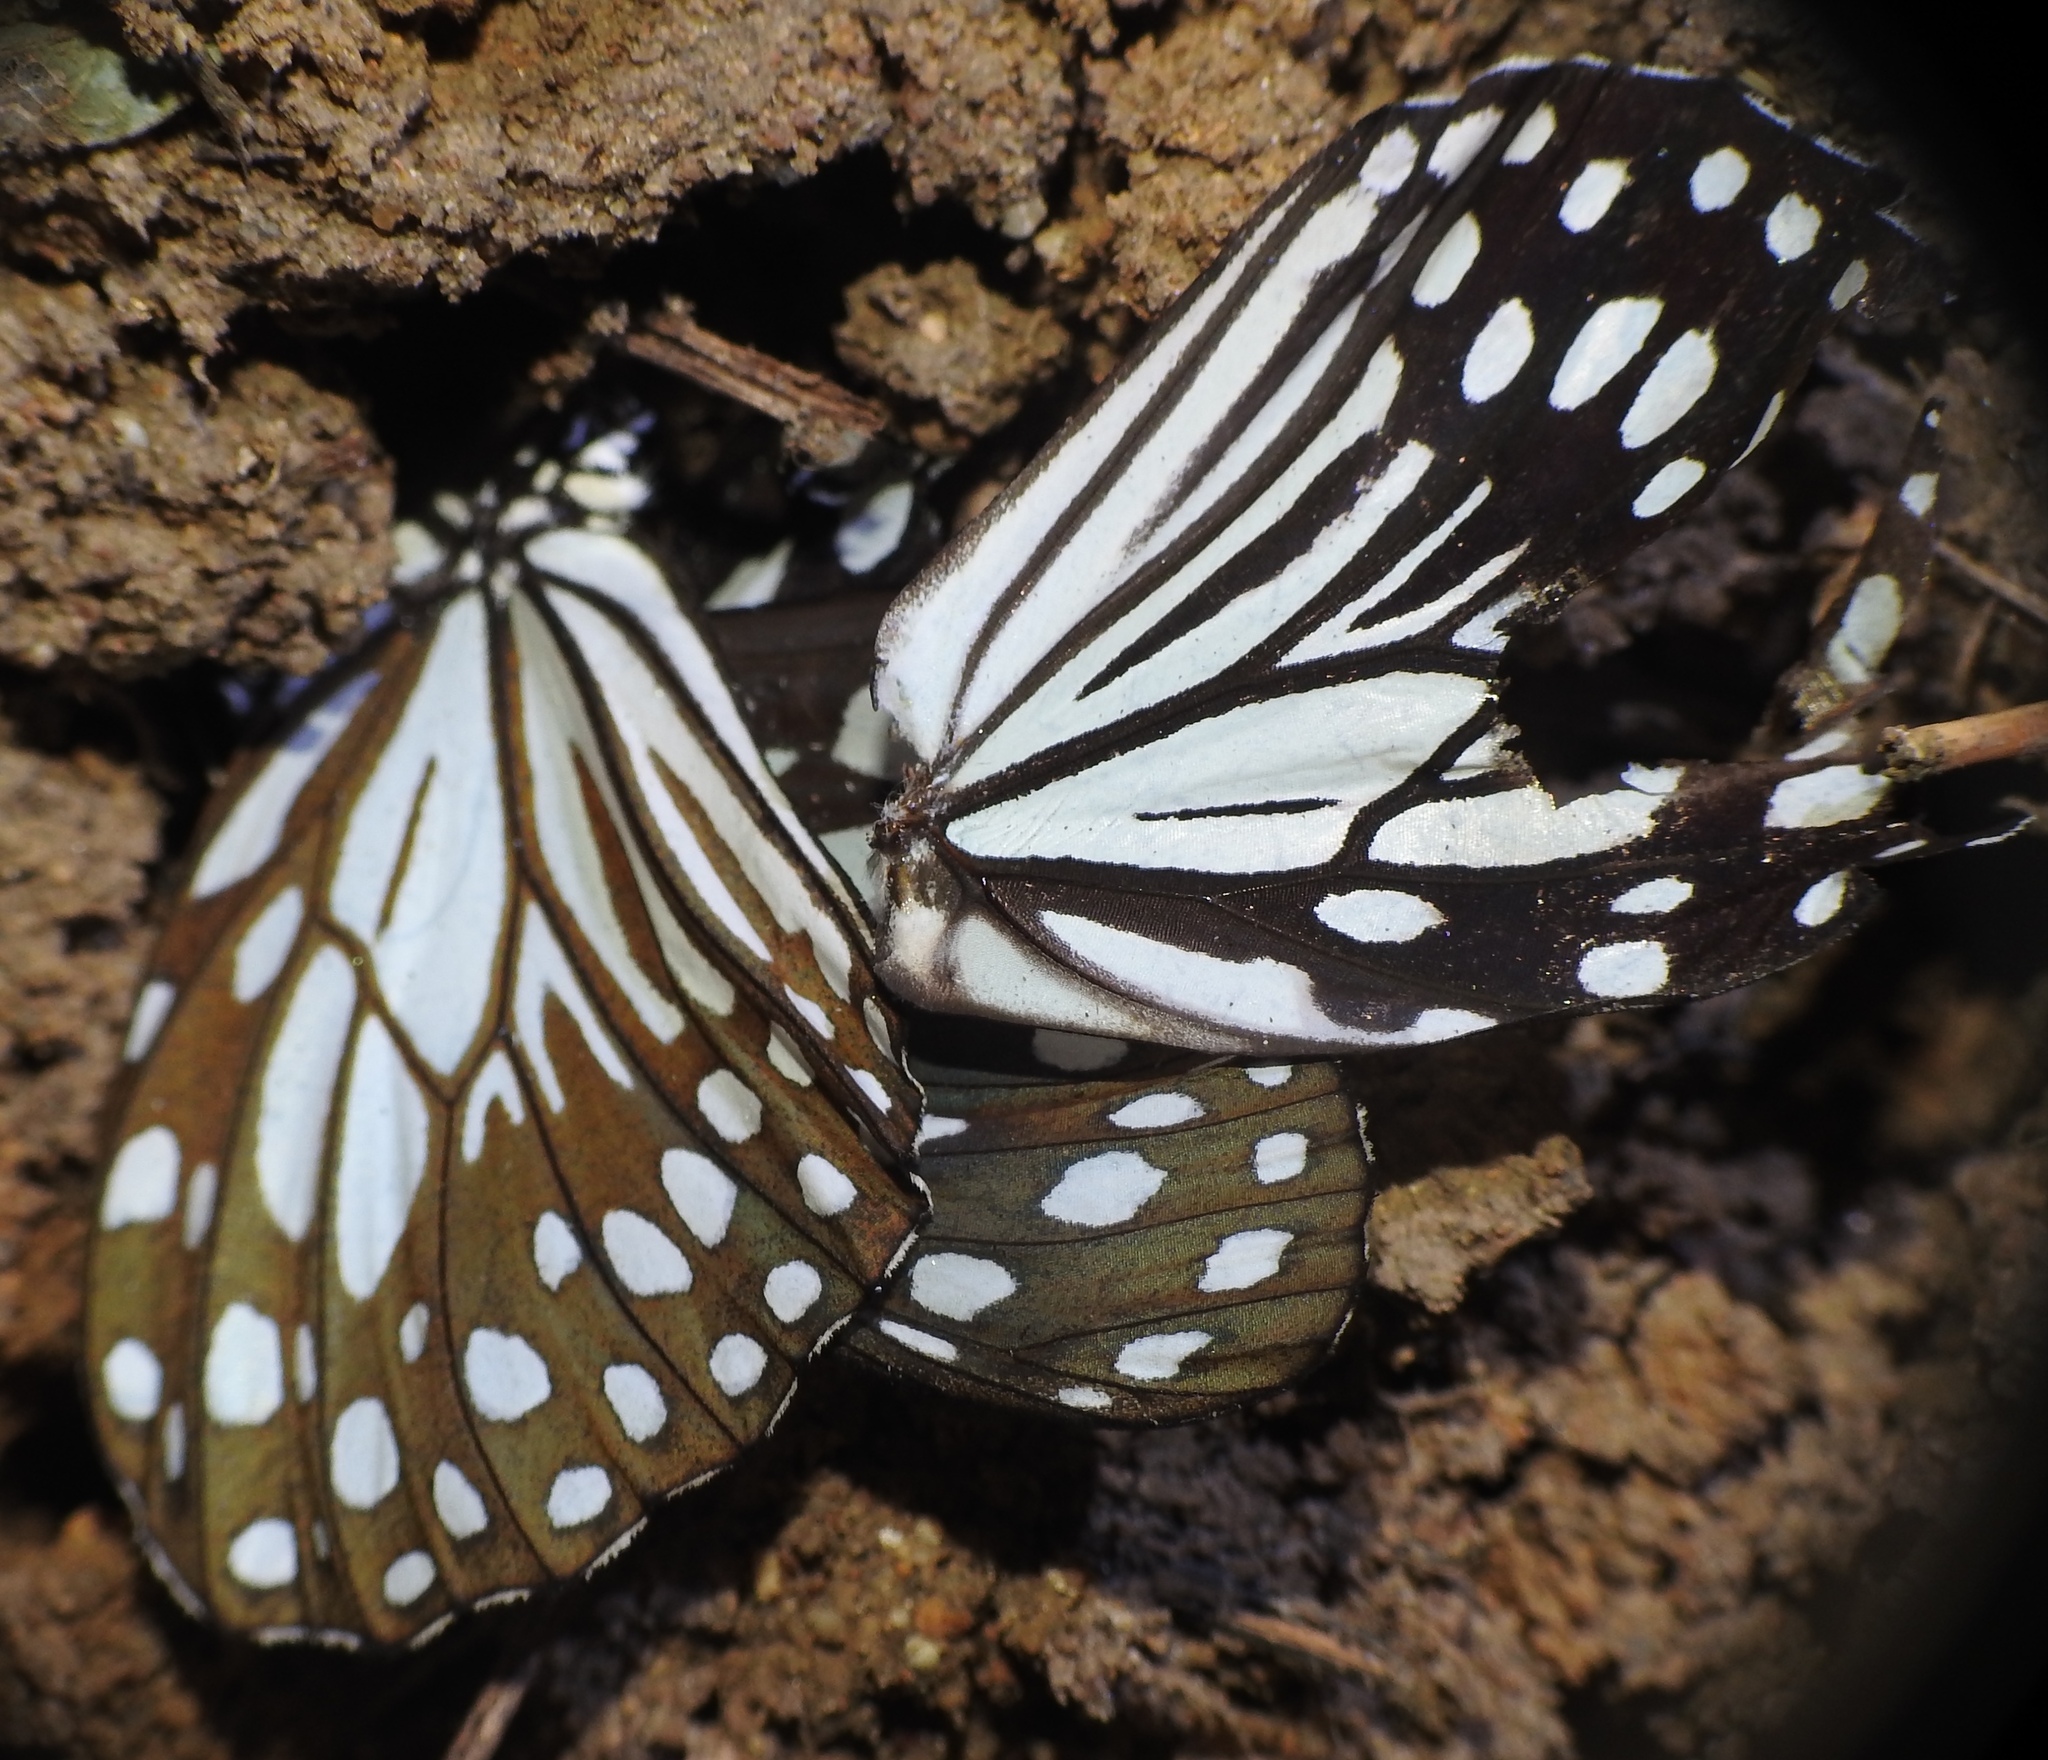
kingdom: Animalia
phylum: Arthropoda
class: Insecta
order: Lepidoptera
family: Nymphalidae
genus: Tirumala
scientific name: Tirumala limniace
